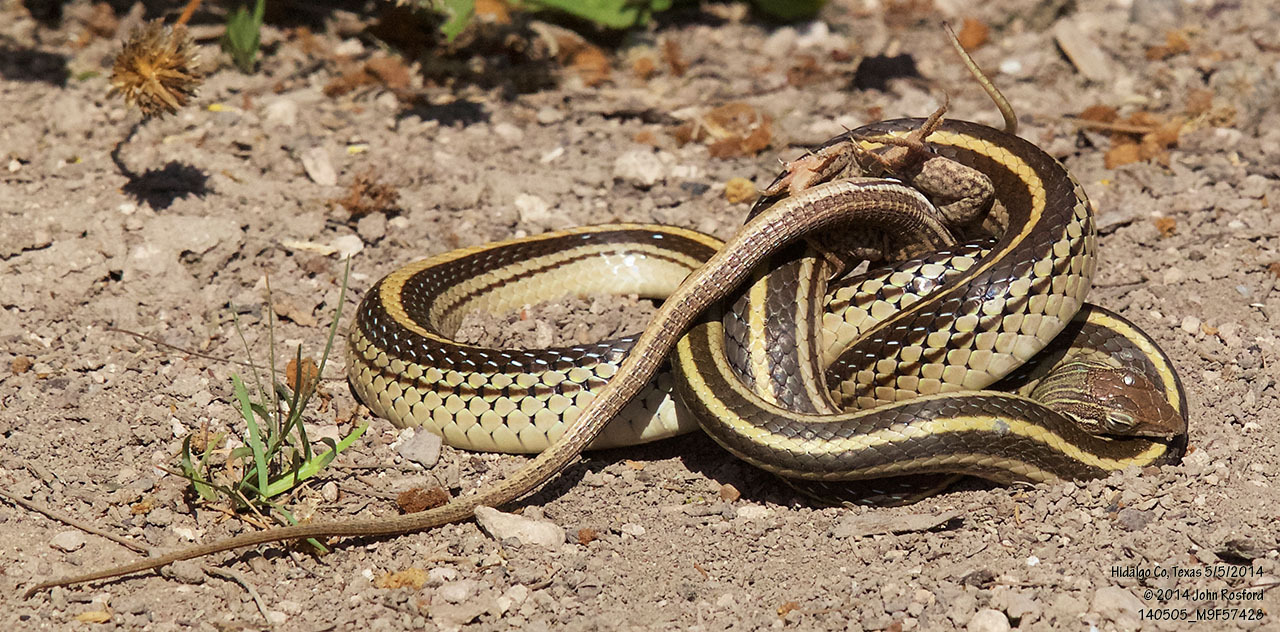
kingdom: Animalia
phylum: Chordata
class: Squamata
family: Colubridae
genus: Salvadora
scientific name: Salvadora lineata
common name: Texas patchnose snake
